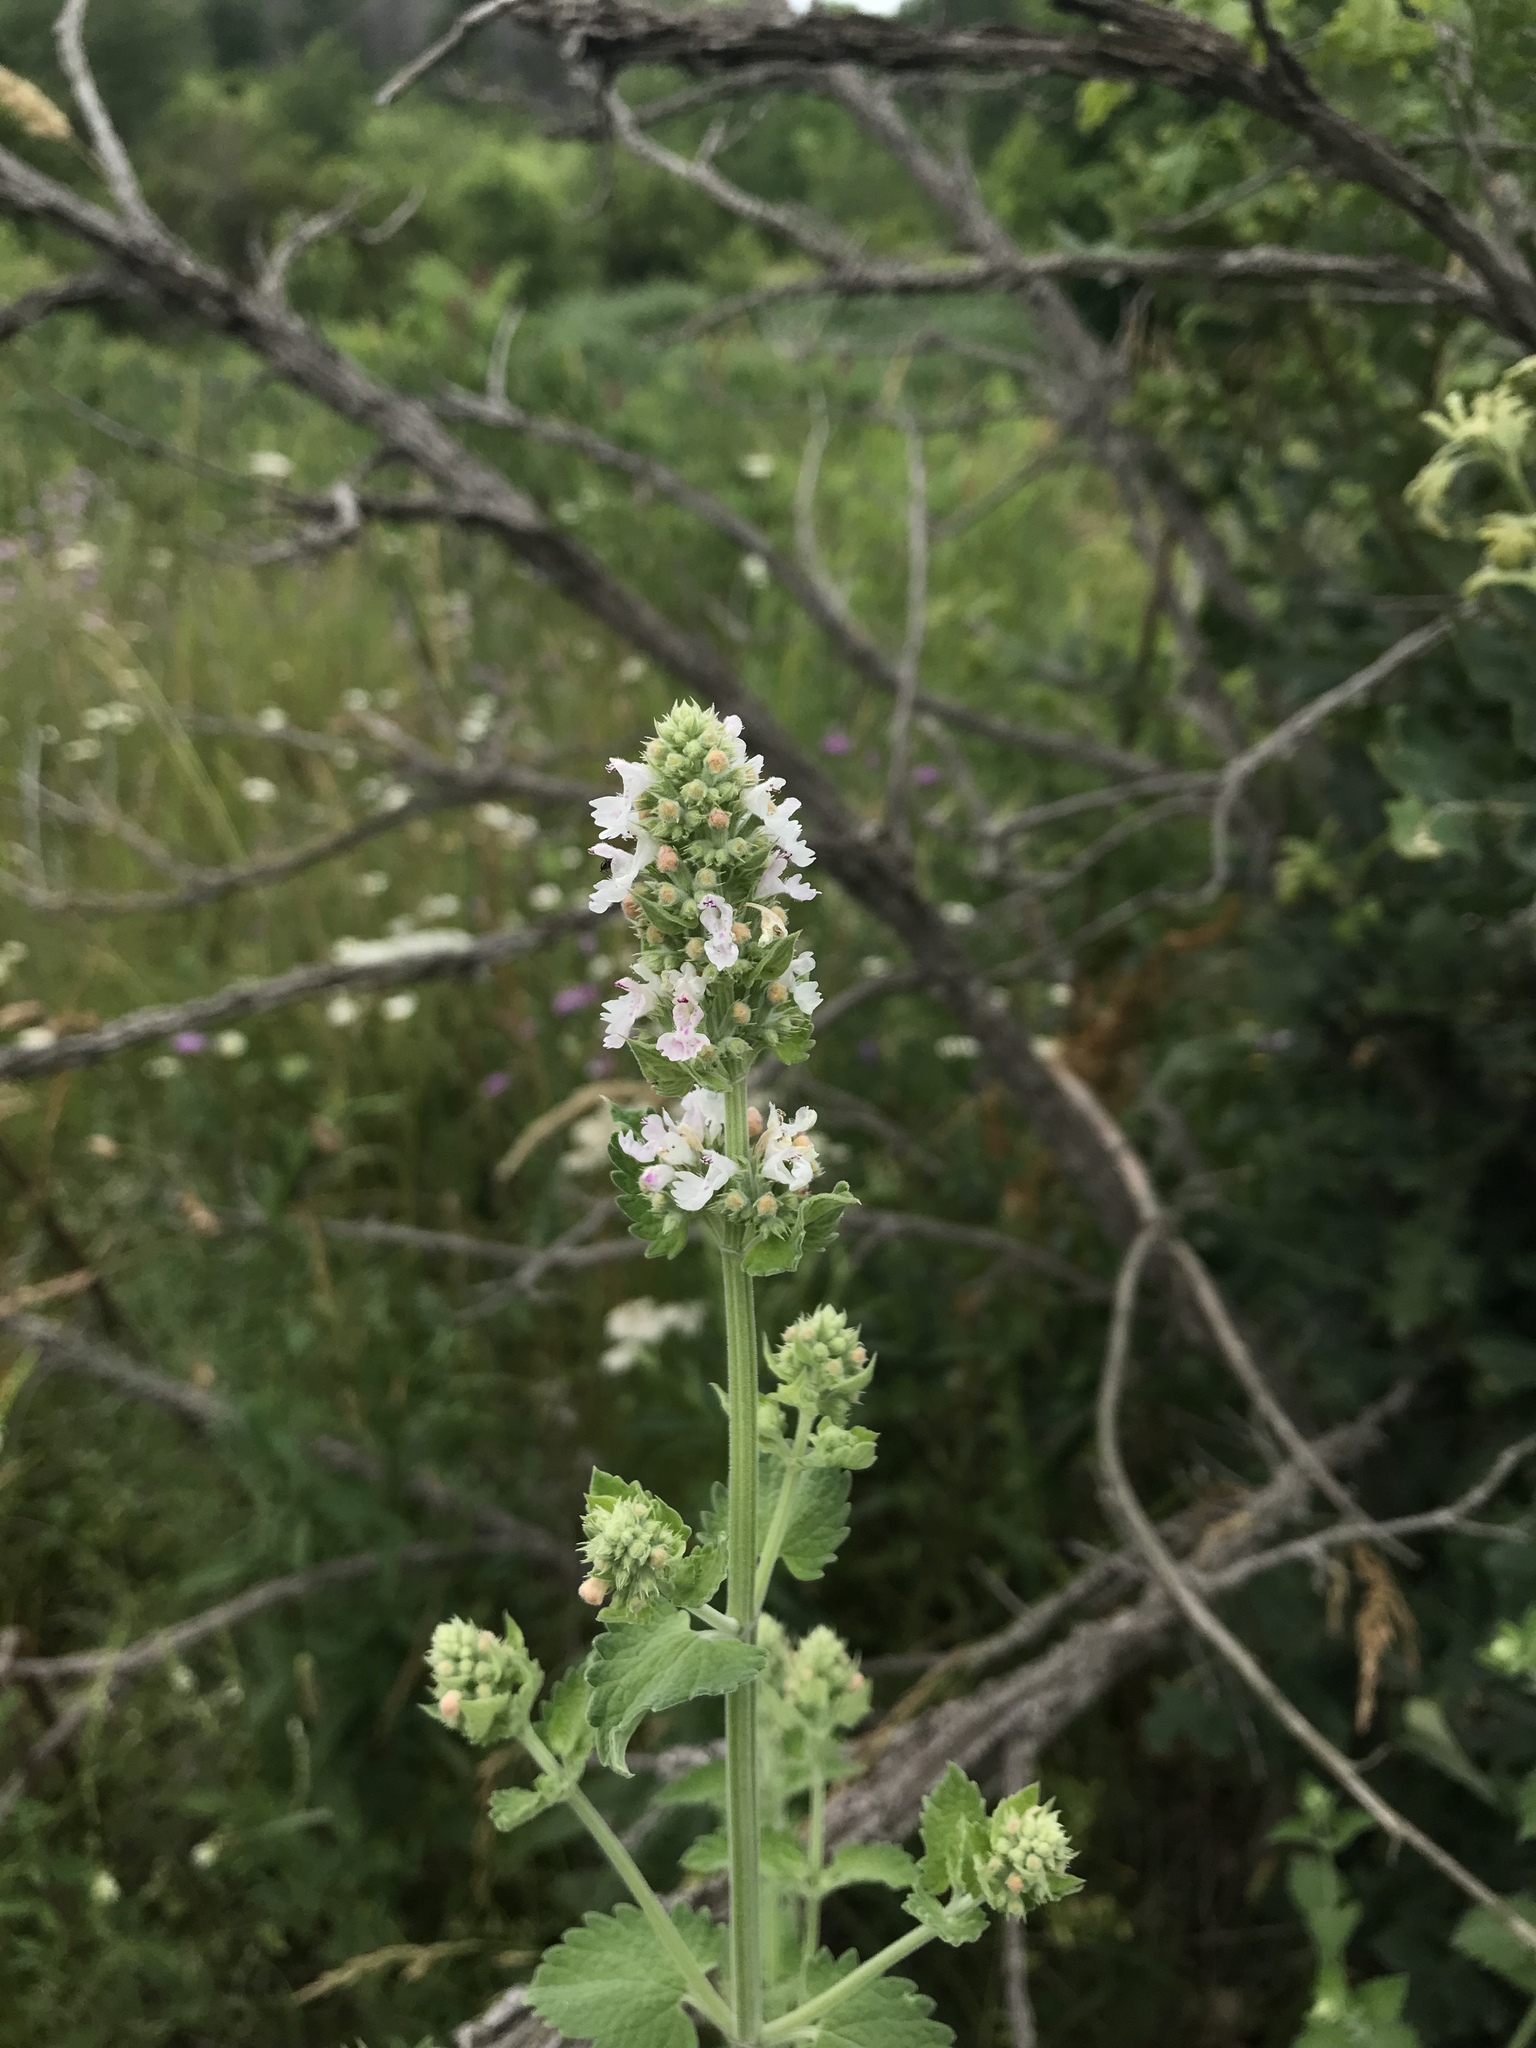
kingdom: Plantae
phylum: Tracheophyta
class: Magnoliopsida
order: Lamiales
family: Lamiaceae
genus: Nepeta
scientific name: Nepeta cataria
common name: Catnip
